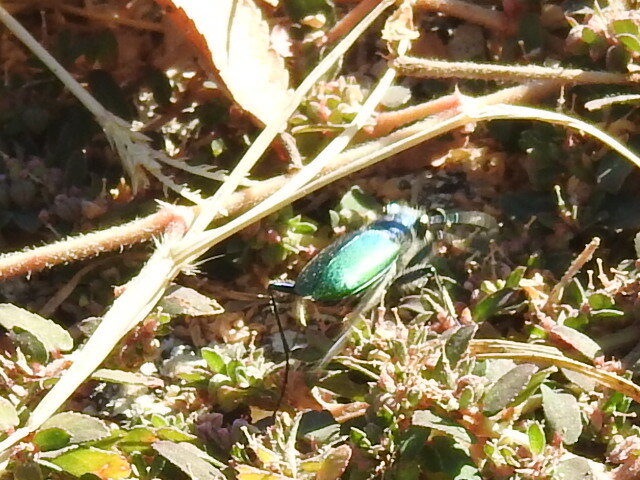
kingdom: Animalia
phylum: Arthropoda
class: Insecta
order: Coleoptera
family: Carabidae
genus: Cicindela
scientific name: Cicindela scutellaris
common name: Festive tiger beetle
